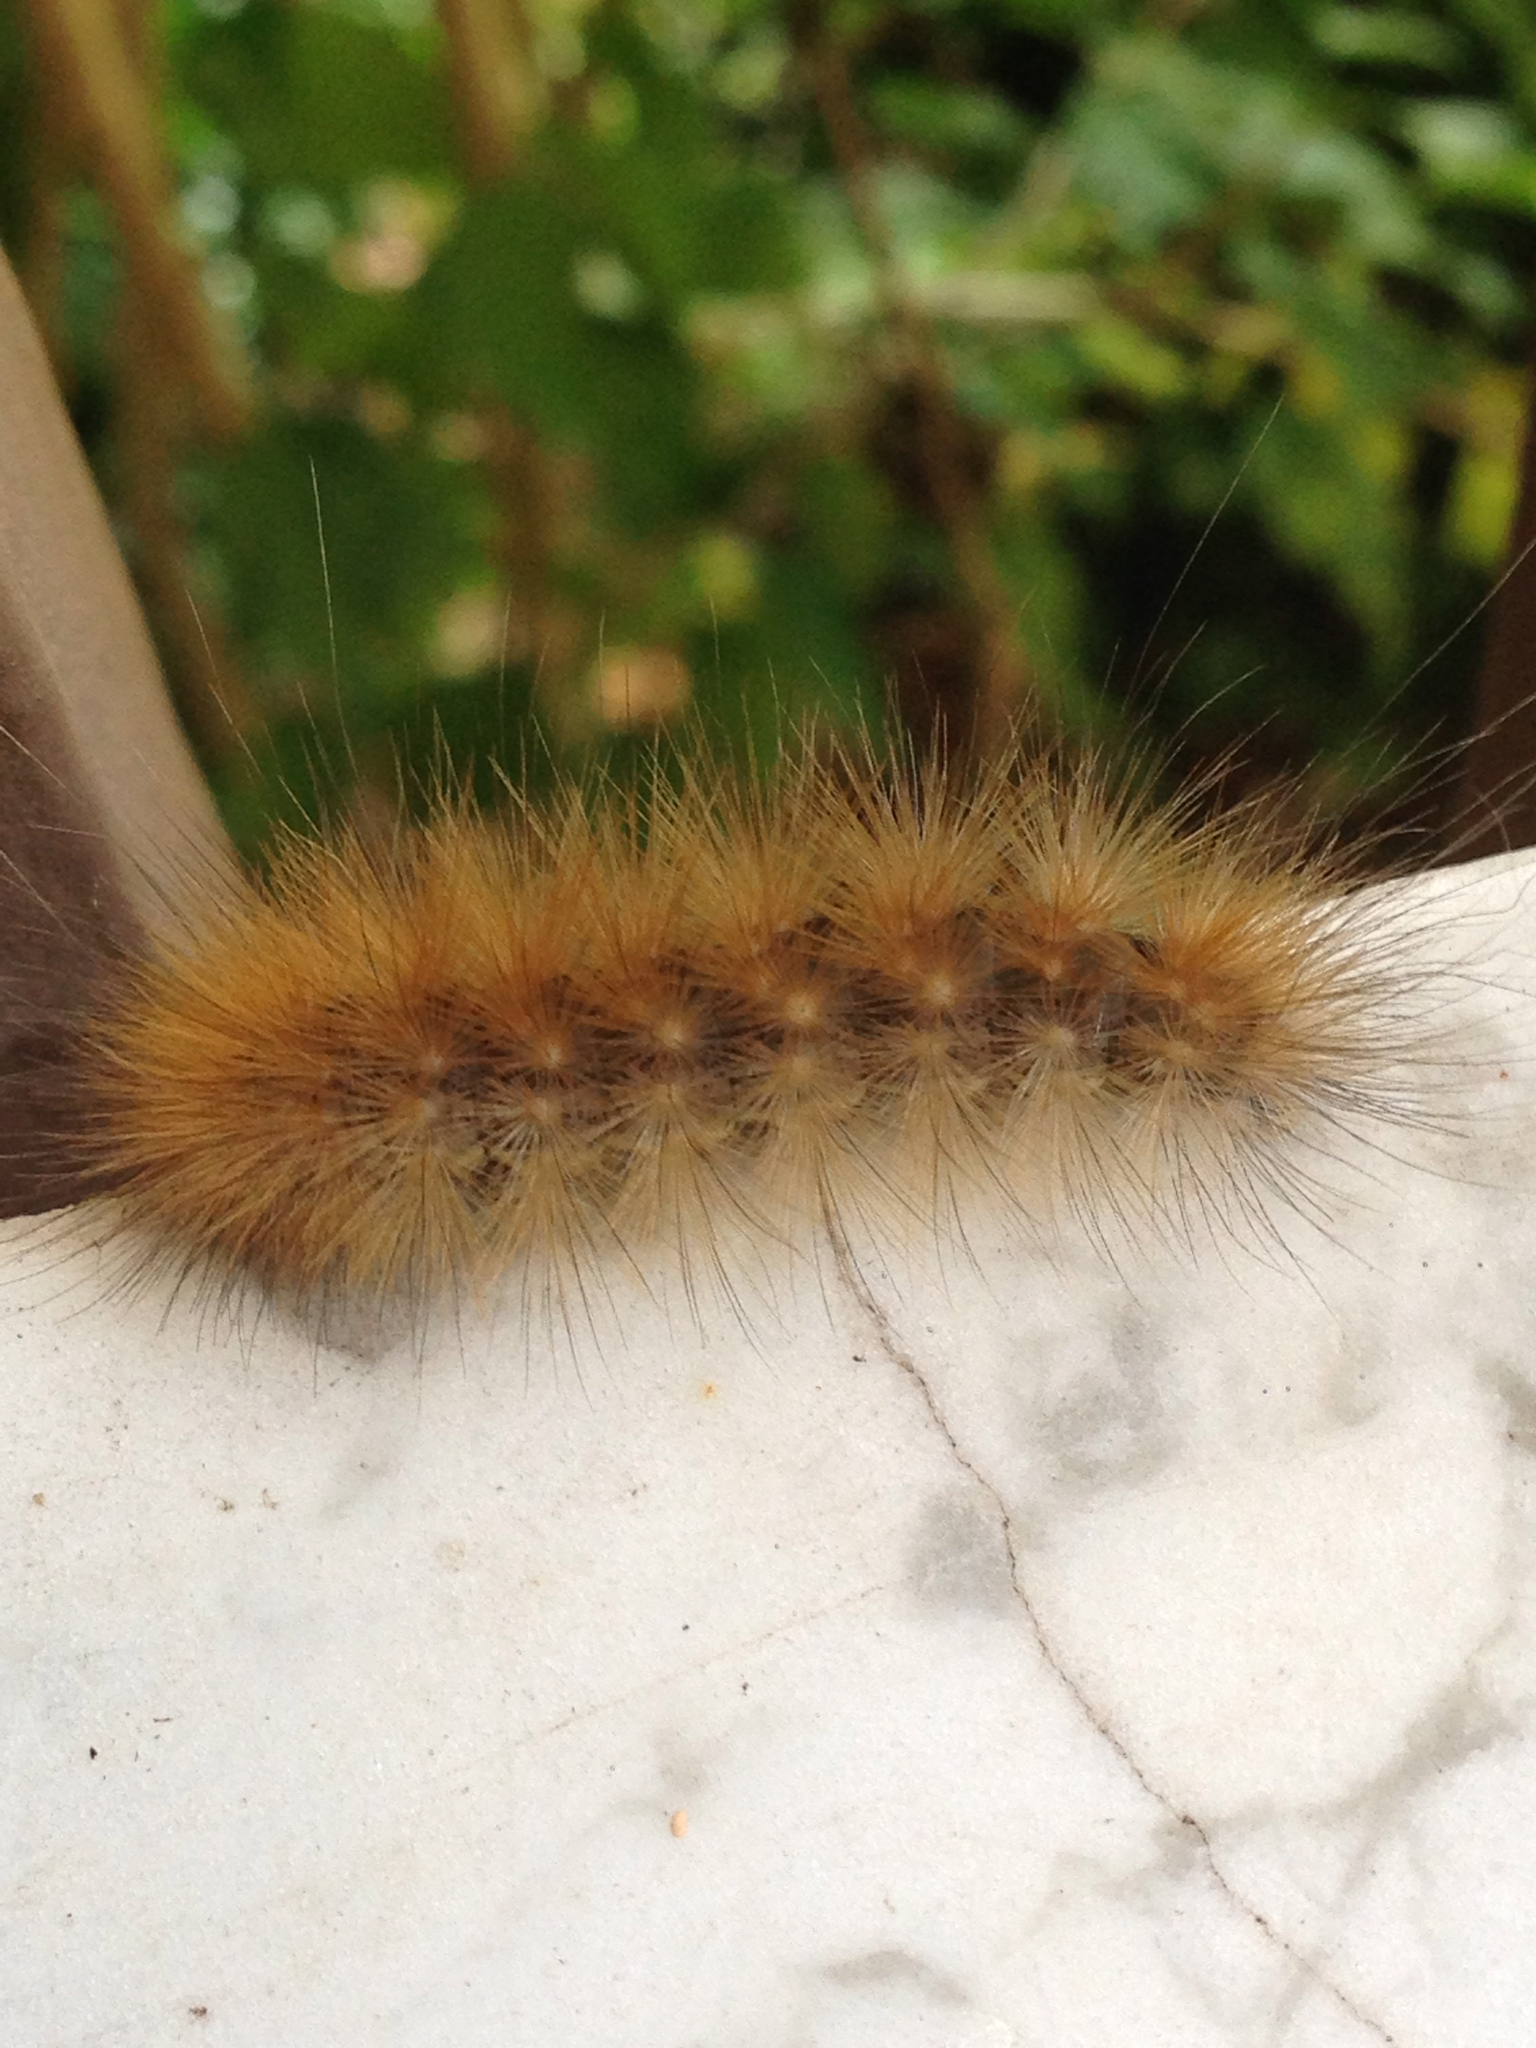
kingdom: Animalia
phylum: Arthropoda
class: Insecta
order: Lepidoptera
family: Erebidae
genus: Spilosoma
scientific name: Spilosoma virginica
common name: Virginia tiger moth
